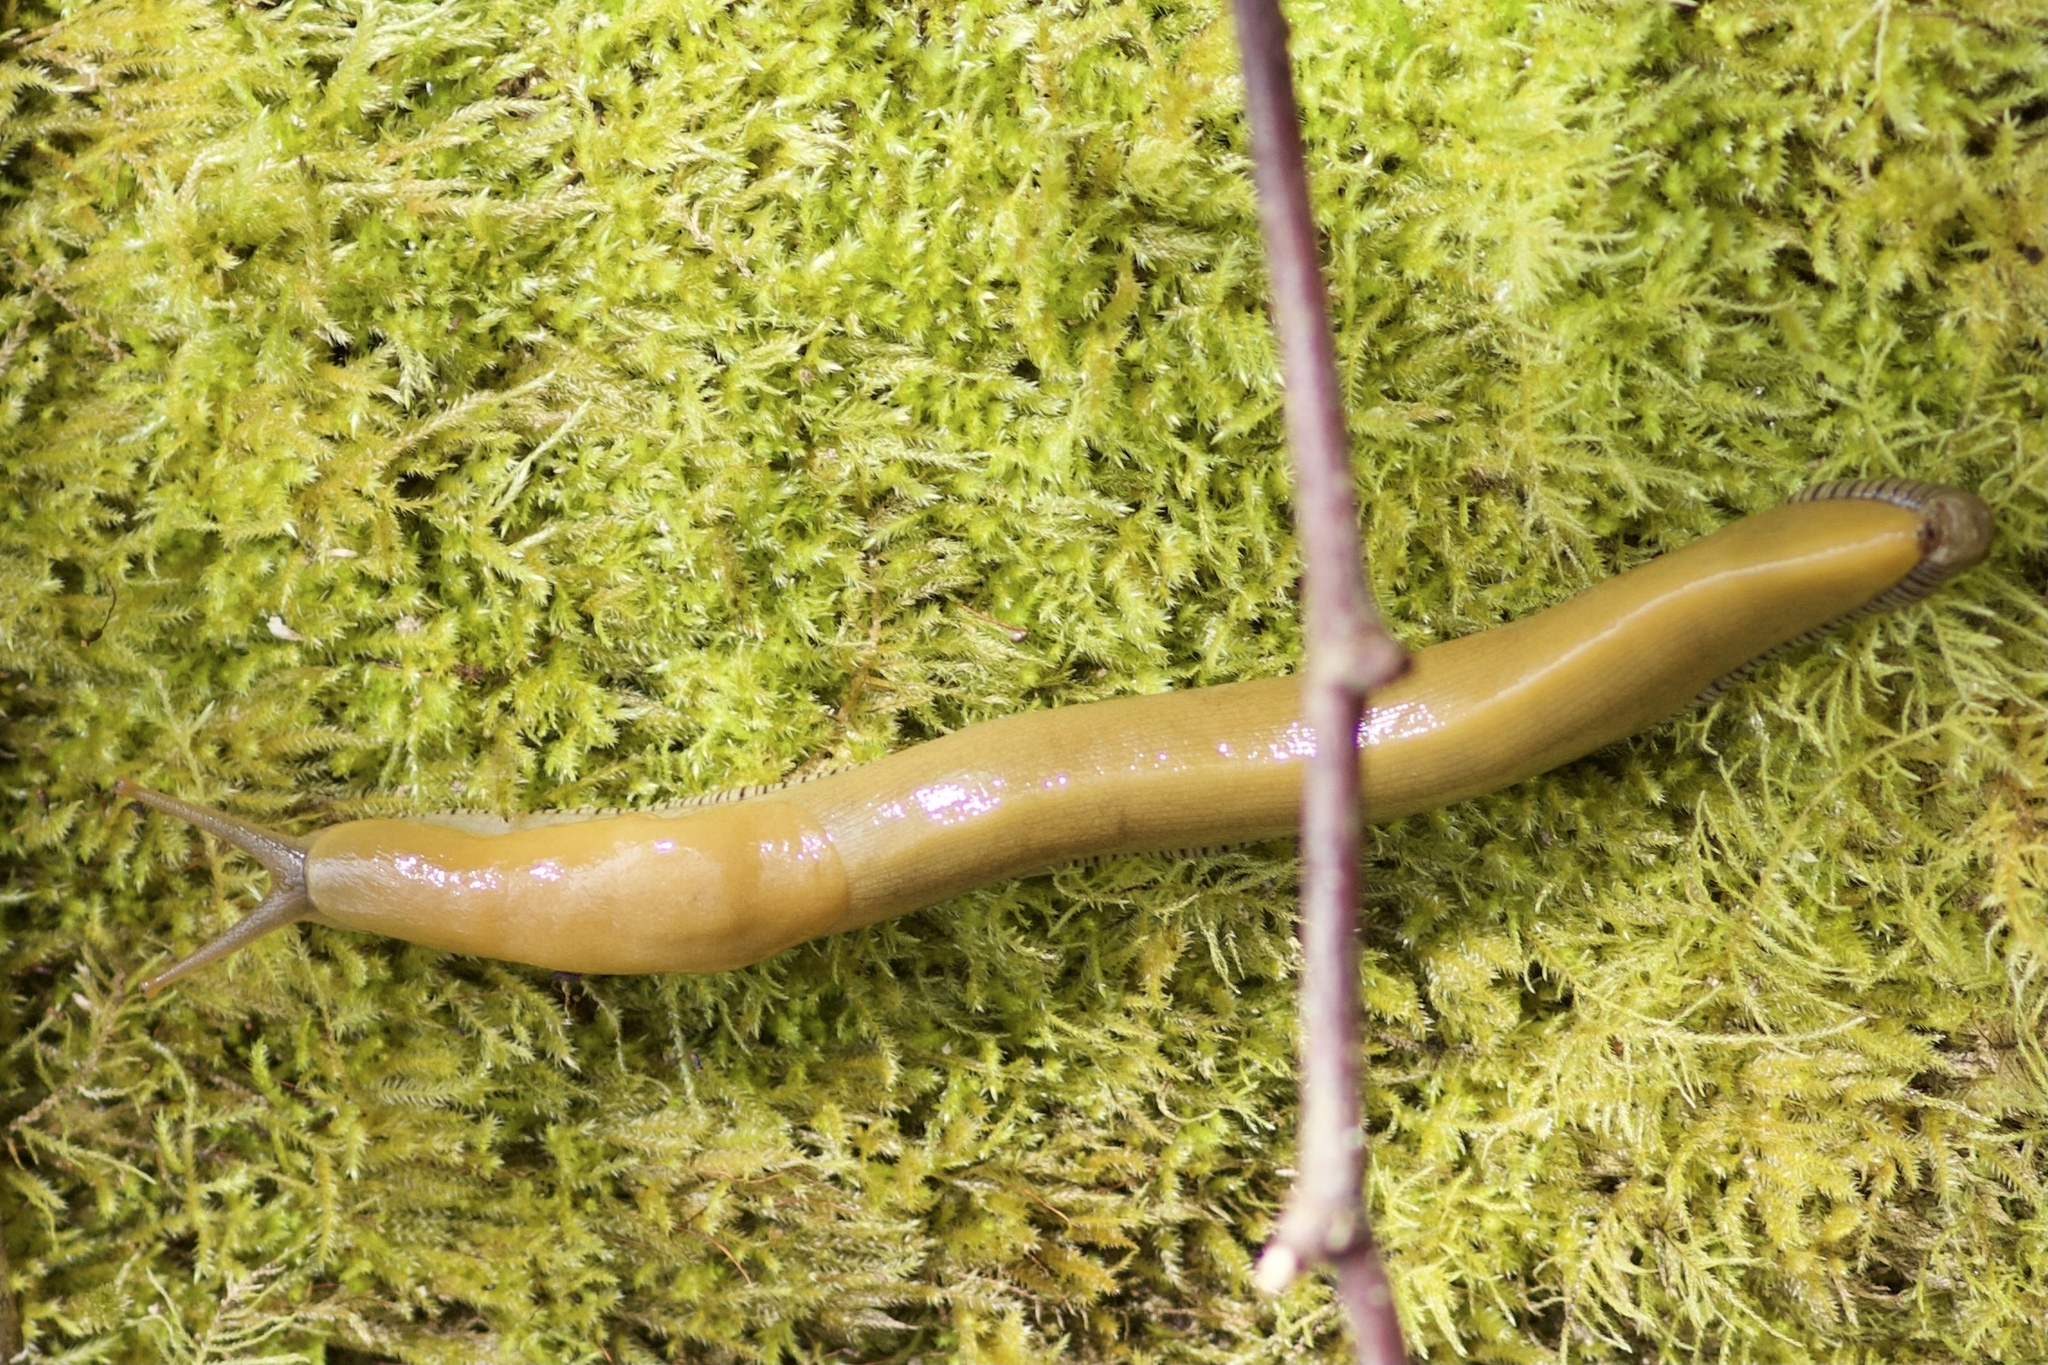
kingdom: Animalia
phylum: Mollusca
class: Gastropoda
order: Stylommatophora
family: Ariolimacidae
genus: Ariolimax
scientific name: Ariolimax buttoni
